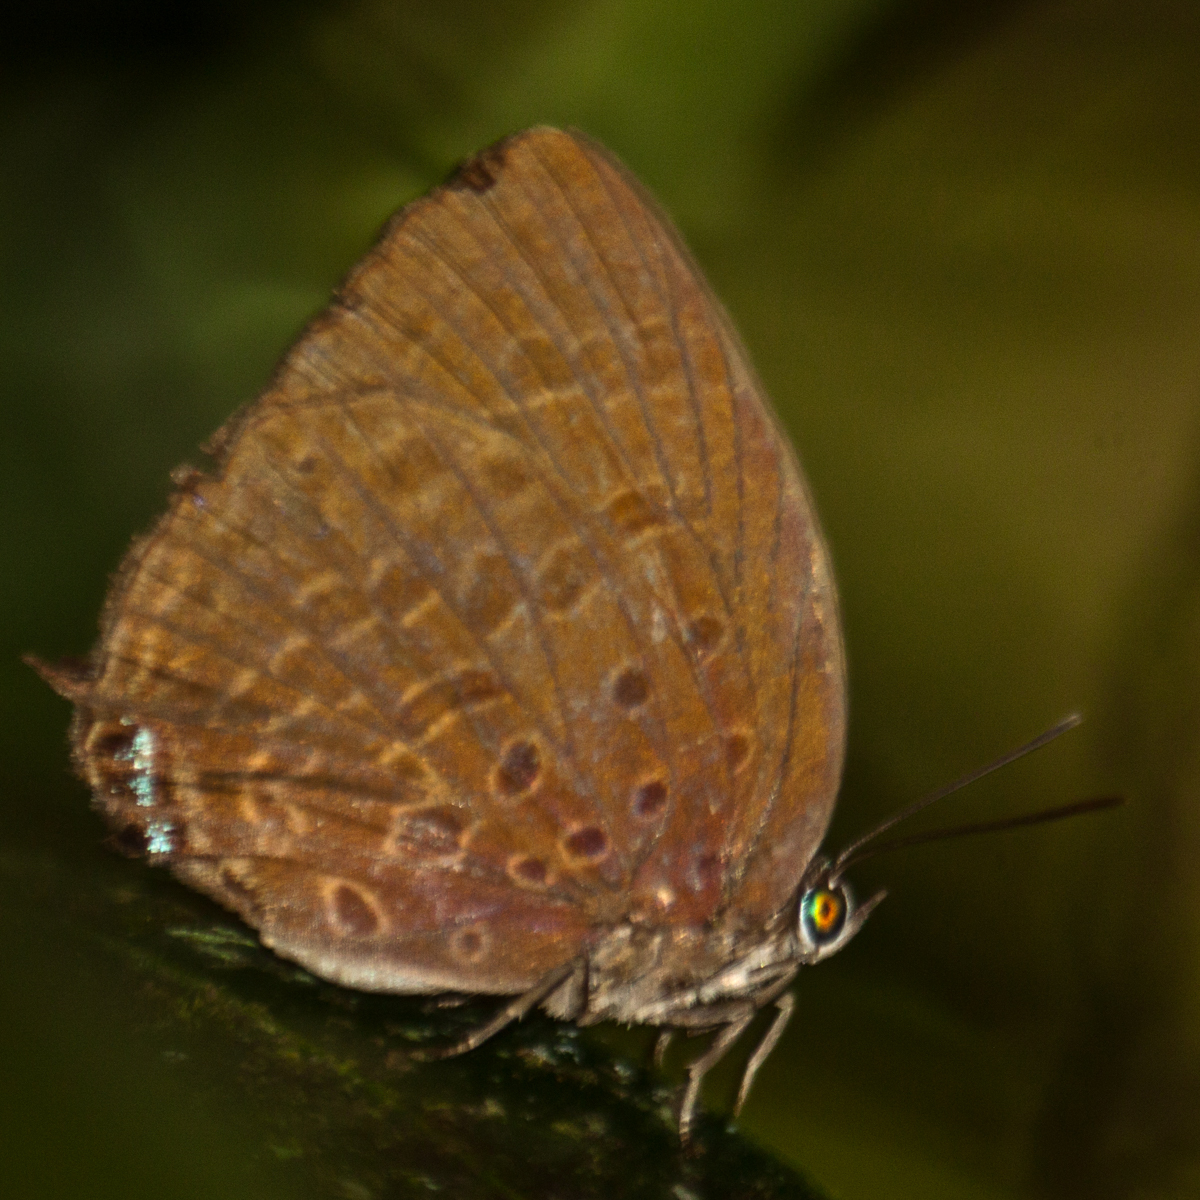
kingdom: Animalia
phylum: Arthropoda
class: Insecta
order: Lepidoptera
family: Lycaenidae
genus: Arhopala
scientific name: Arhopala atosia
